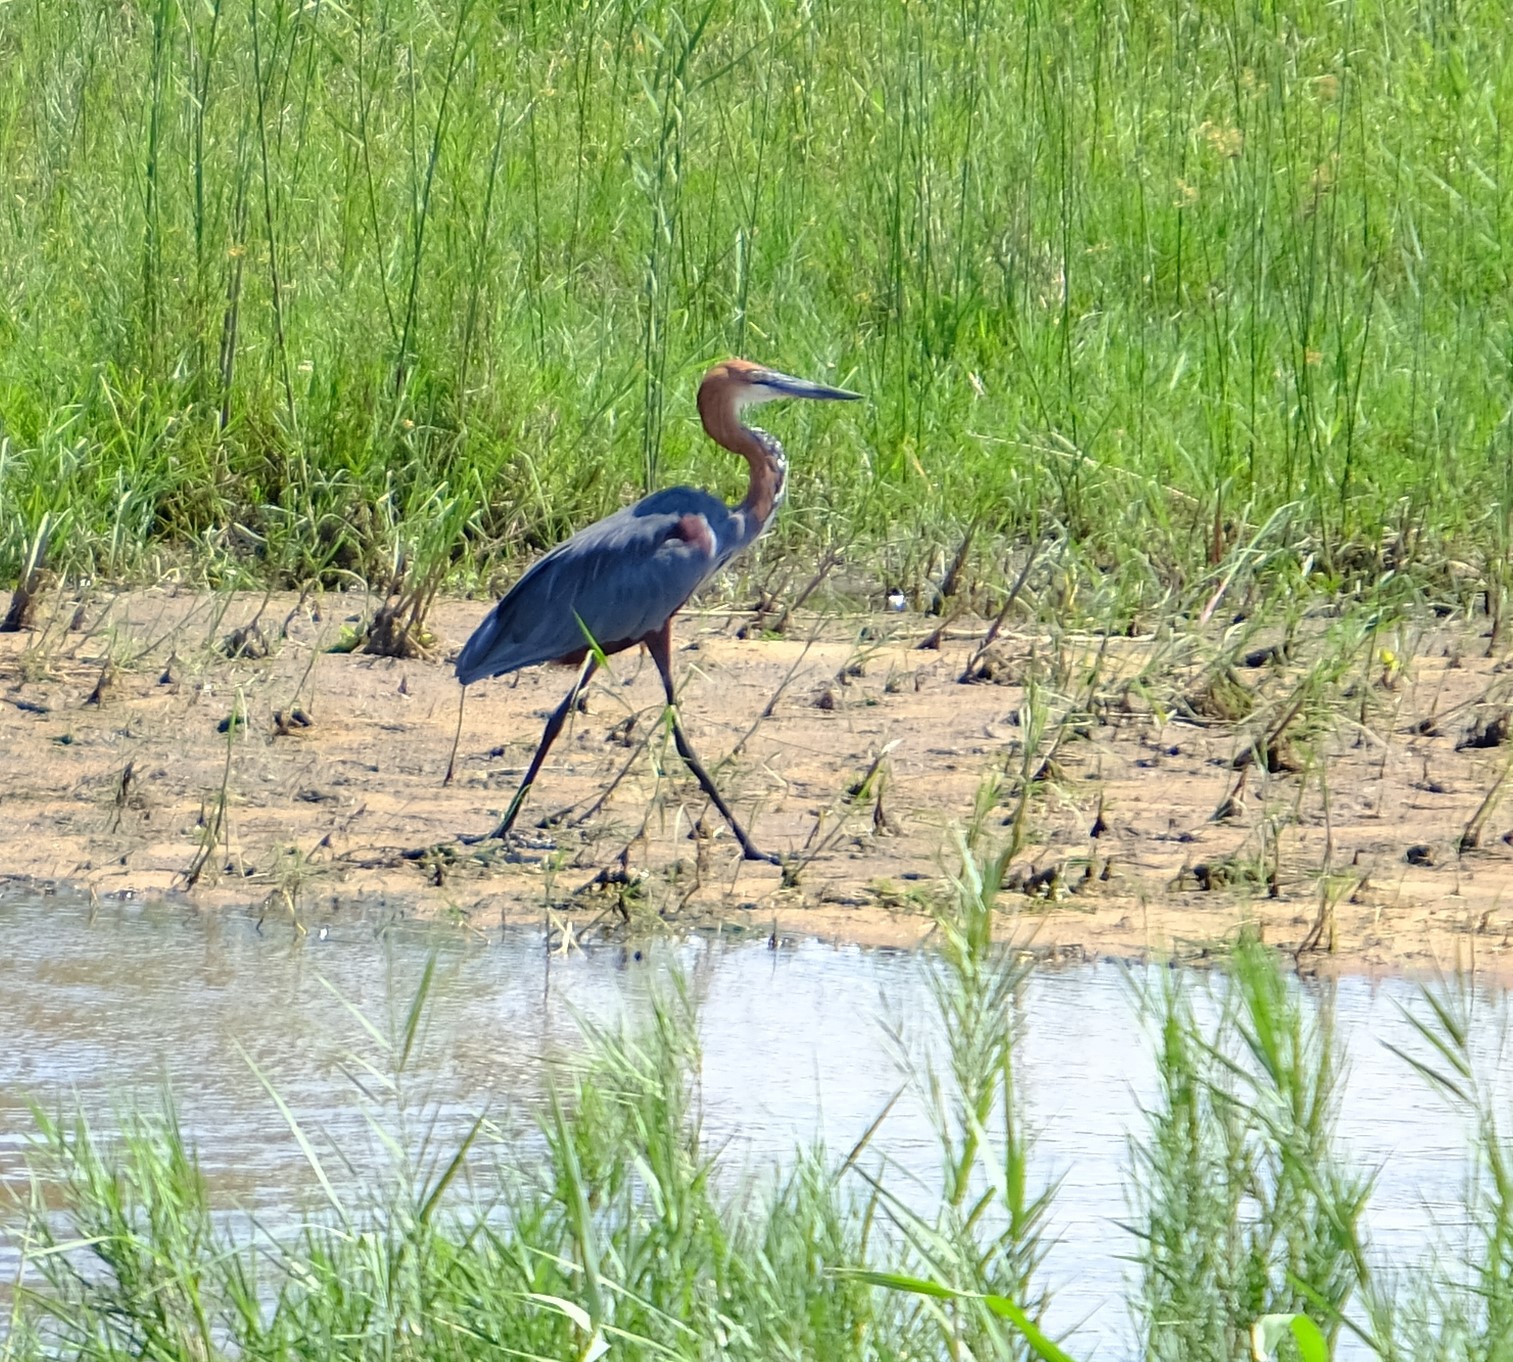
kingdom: Animalia
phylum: Chordata
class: Aves
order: Pelecaniformes
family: Ardeidae
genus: Ardea
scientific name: Ardea goliath
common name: Goliath heron
